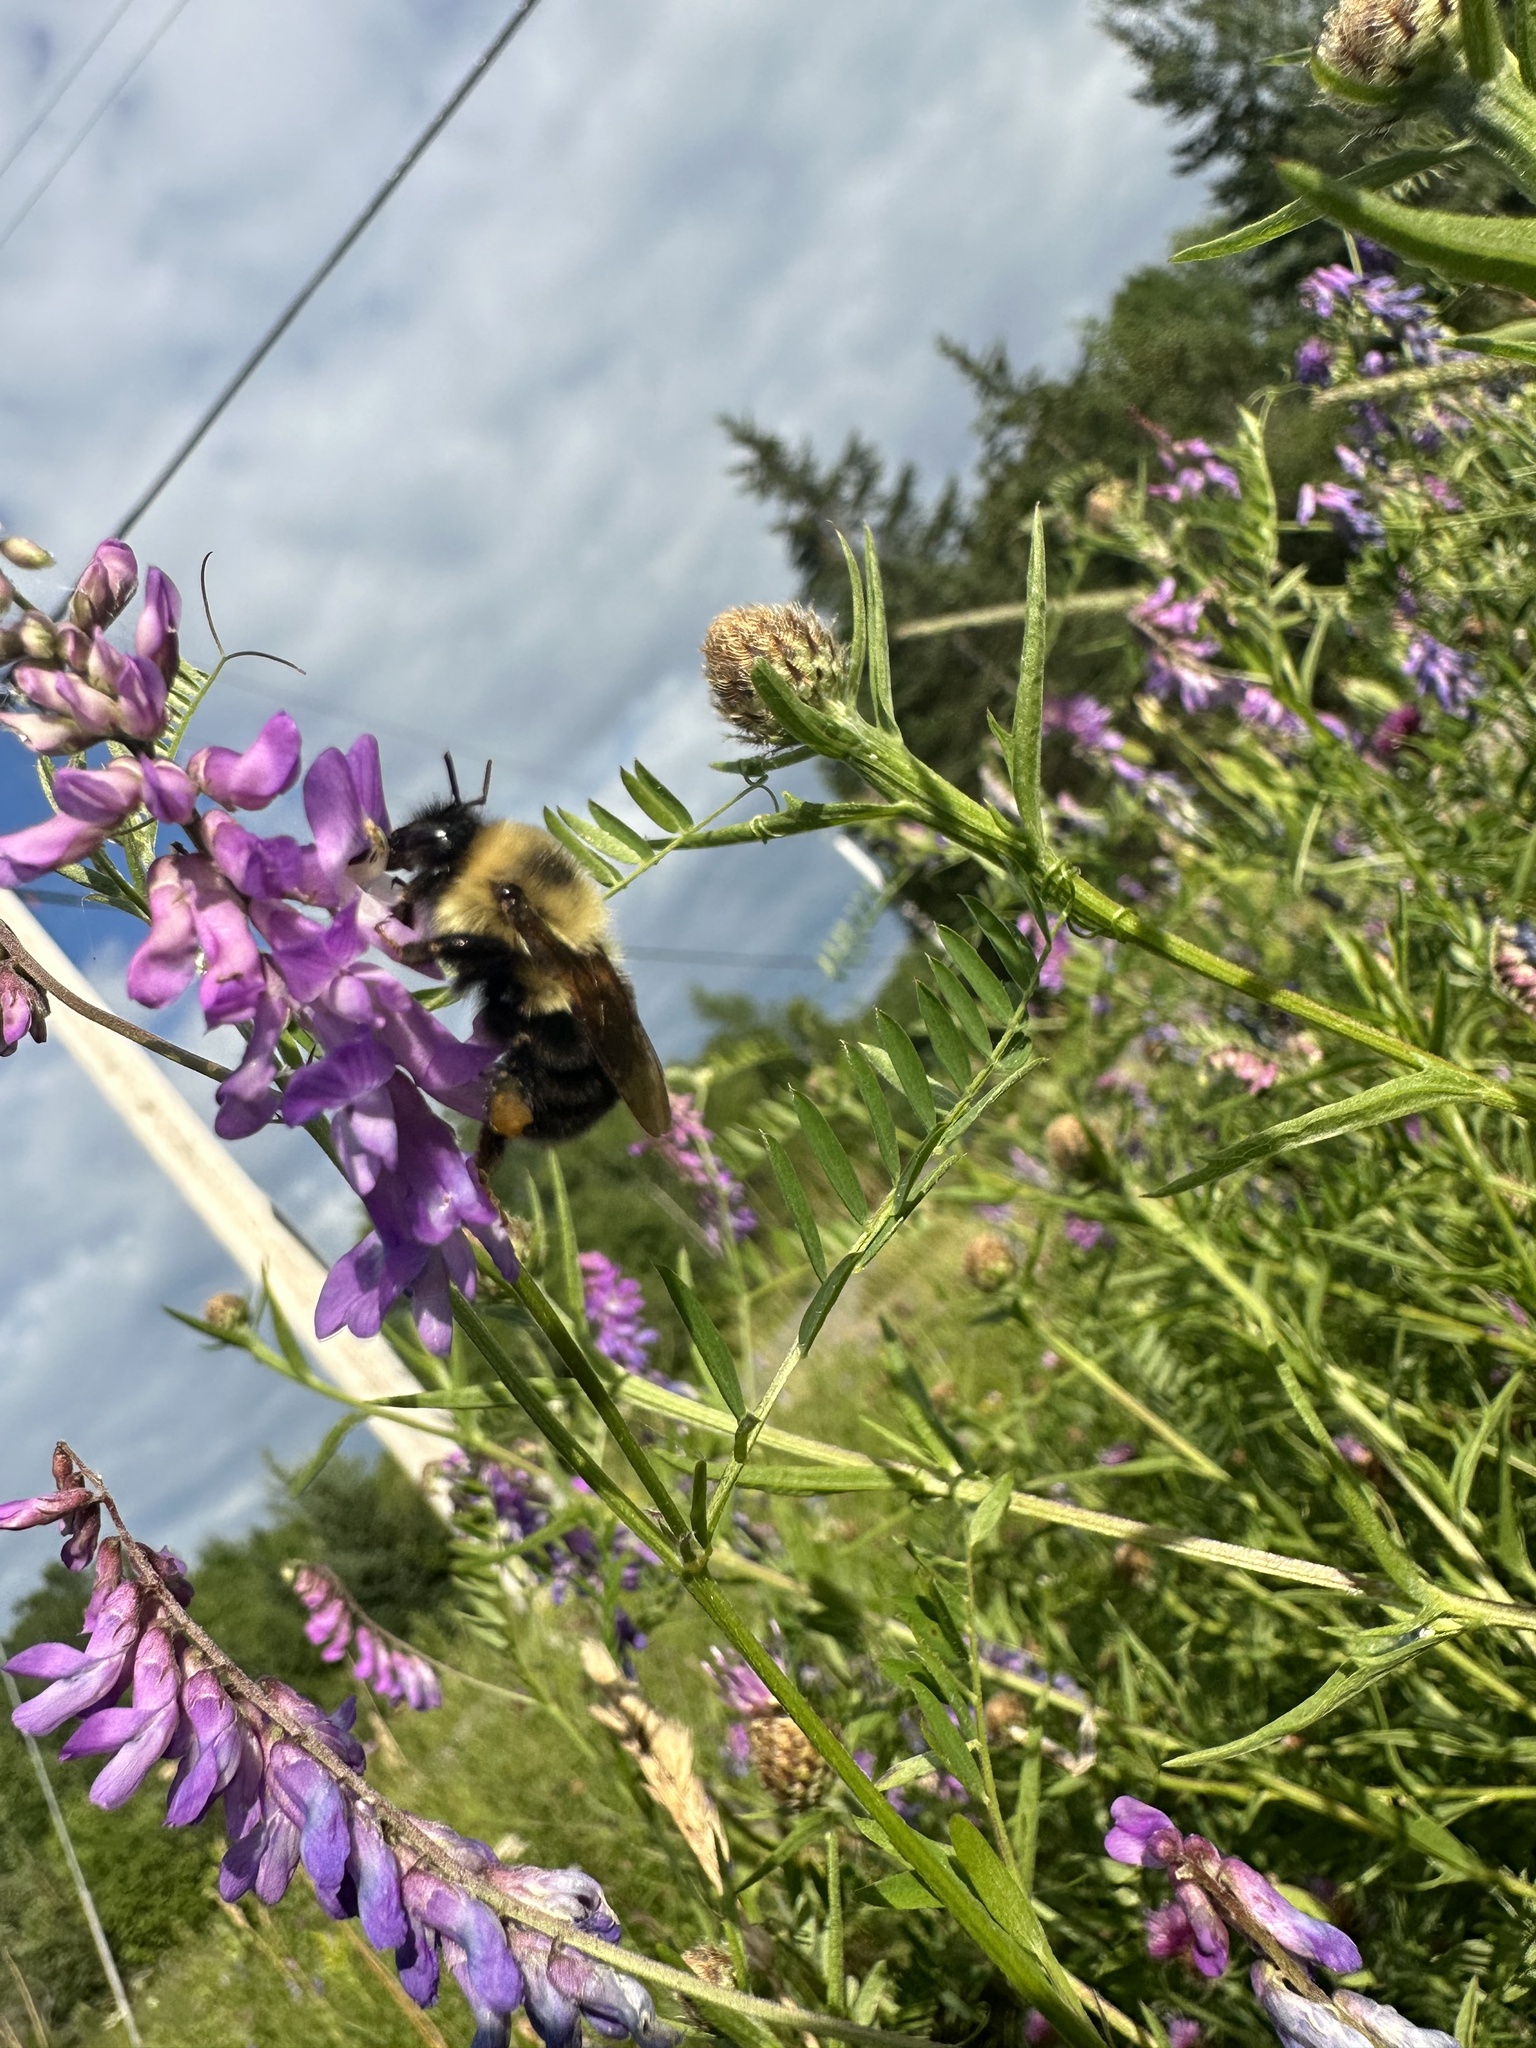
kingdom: Animalia
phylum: Arthropoda
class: Insecta
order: Hymenoptera
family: Apidae
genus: Bombus
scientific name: Bombus bimaculatus
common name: Two-spotted bumble bee
